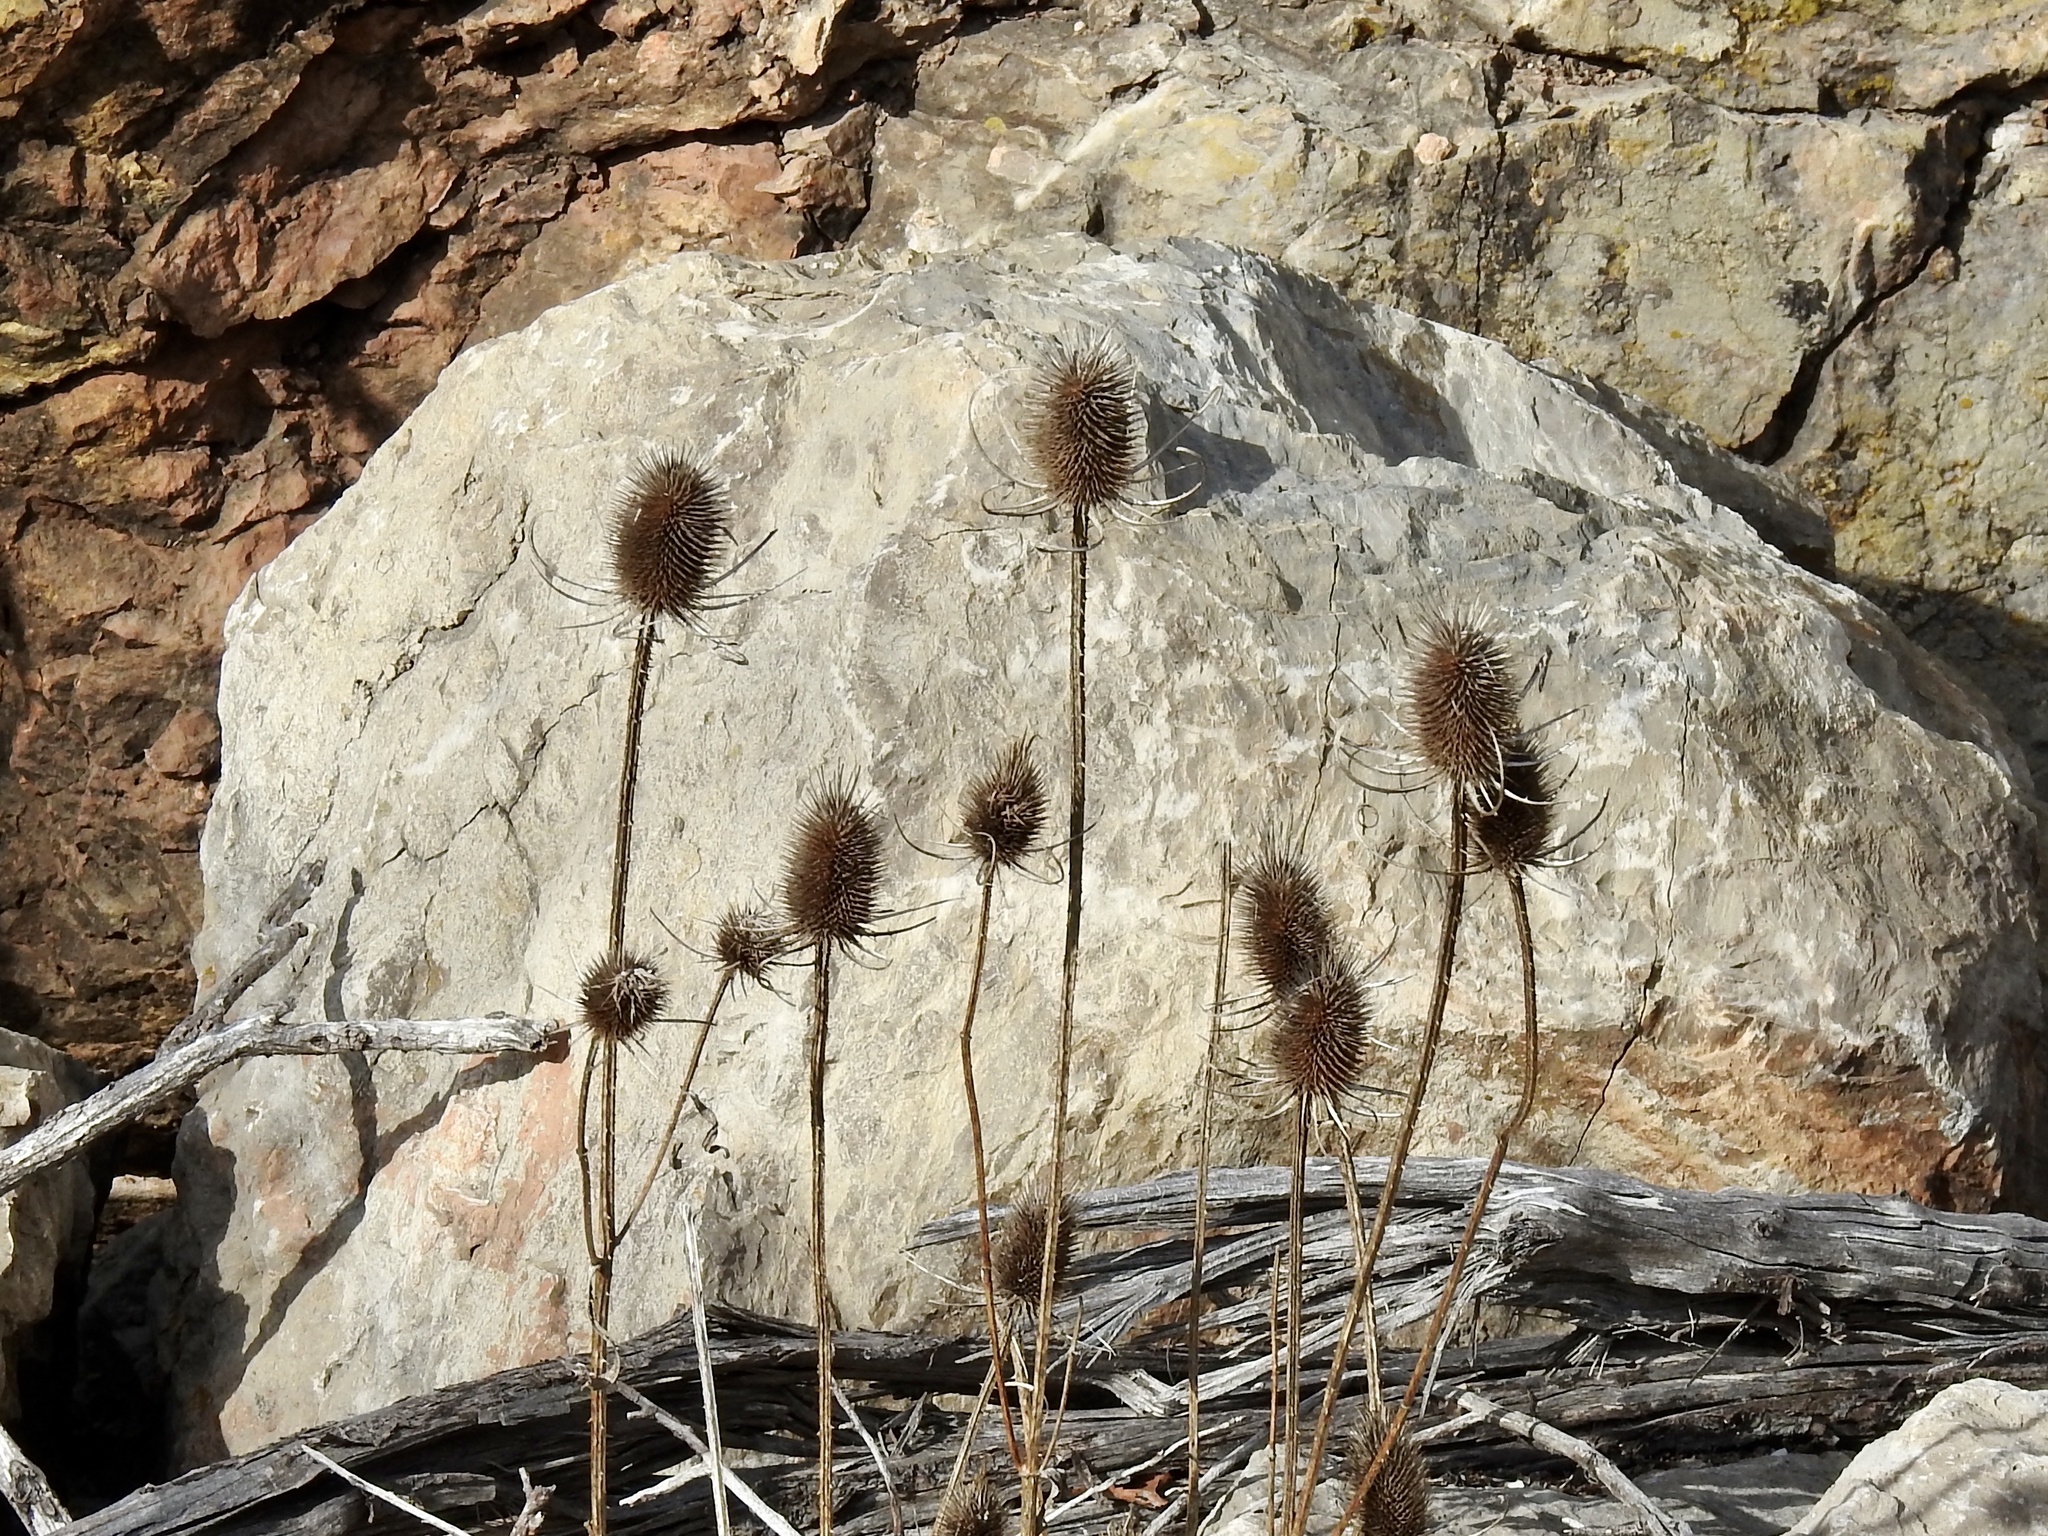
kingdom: Plantae
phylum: Tracheophyta
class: Magnoliopsida
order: Dipsacales
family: Caprifoliaceae
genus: Dipsacus
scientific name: Dipsacus fullonum
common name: Teasel
